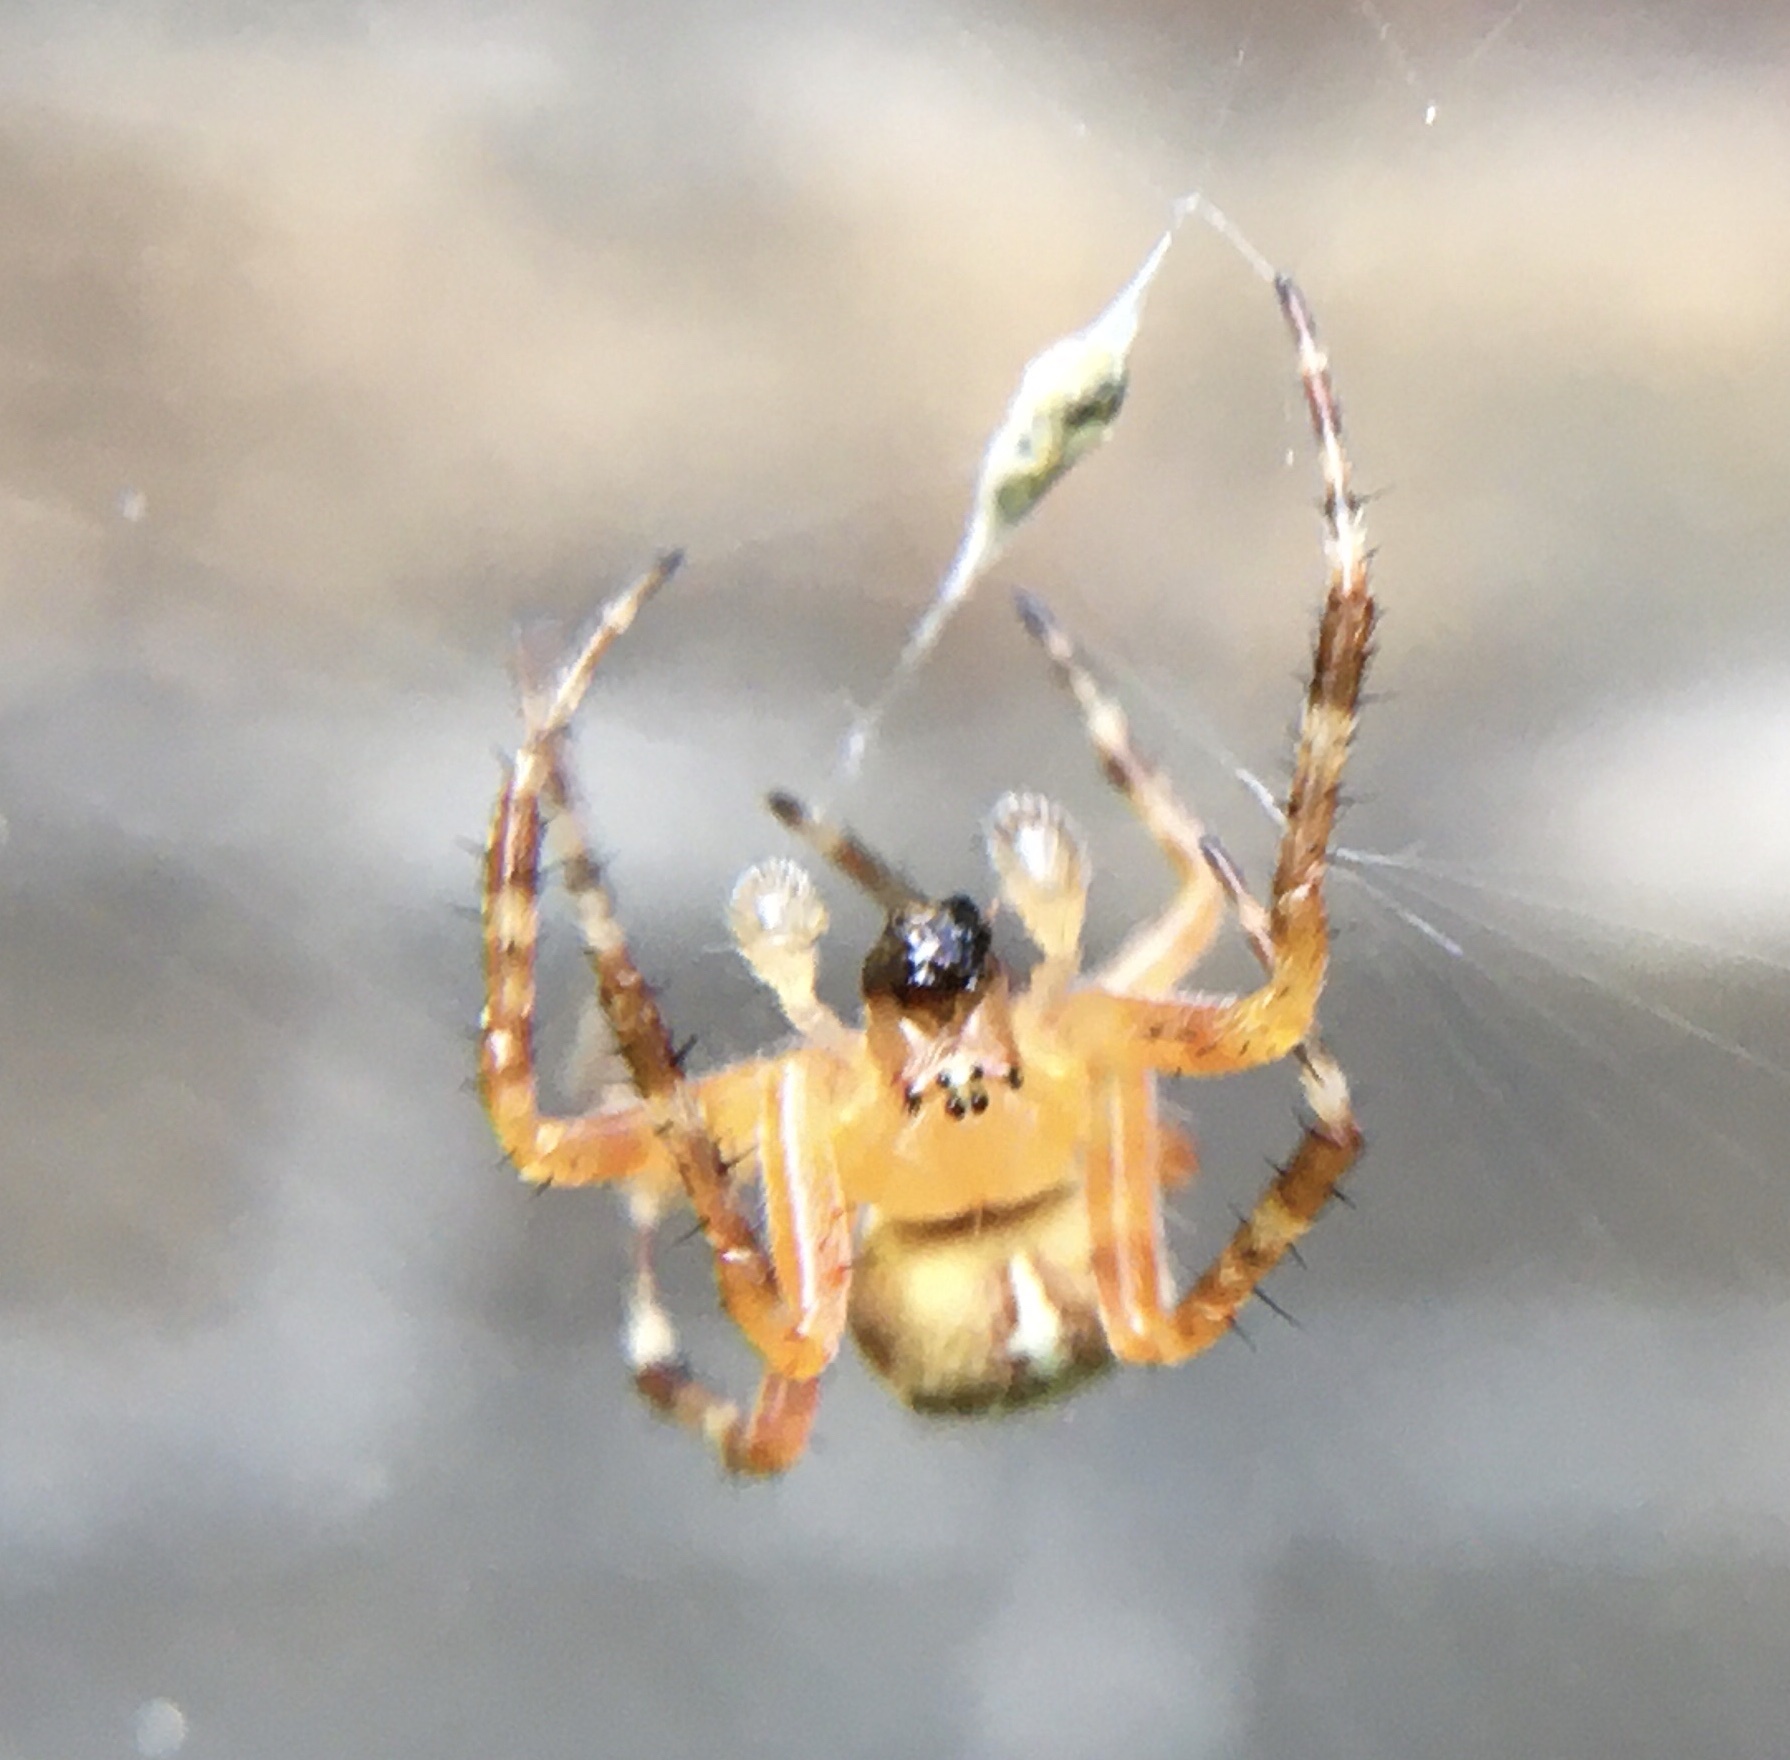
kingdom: Animalia
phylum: Arthropoda
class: Arachnida
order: Araneae
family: Araneidae
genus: Araneus
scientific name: Araneus diadematus
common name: Cross orbweaver
